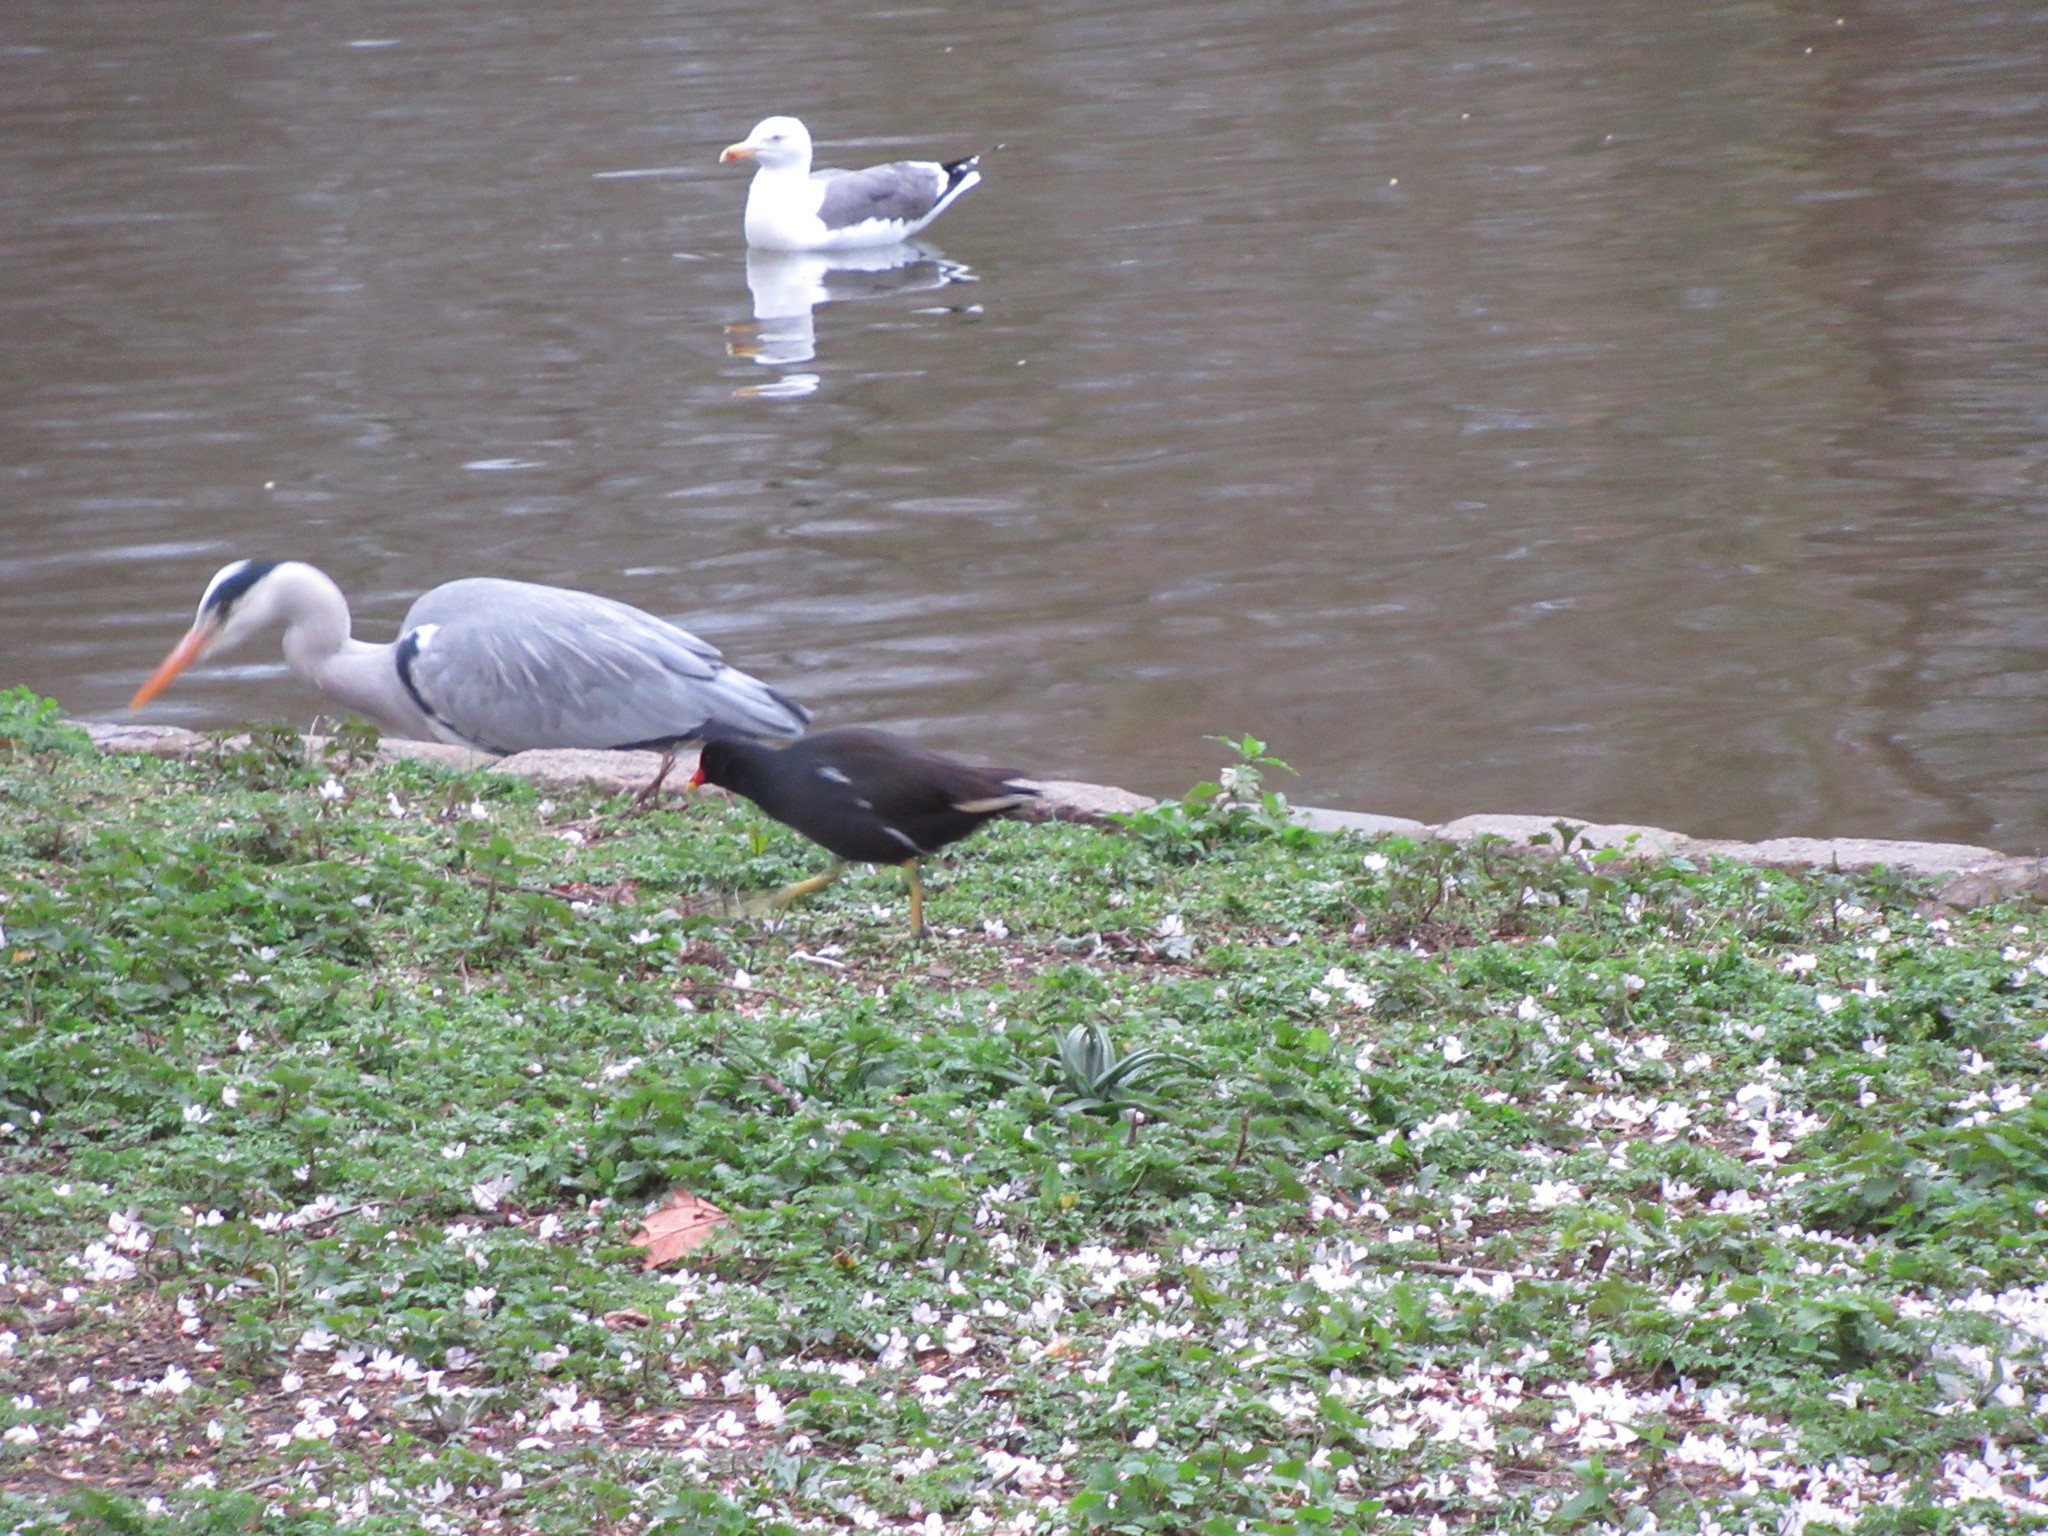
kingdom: Animalia
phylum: Chordata
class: Aves
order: Gruiformes
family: Rallidae
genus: Gallinula
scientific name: Gallinula chloropus
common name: Common moorhen
